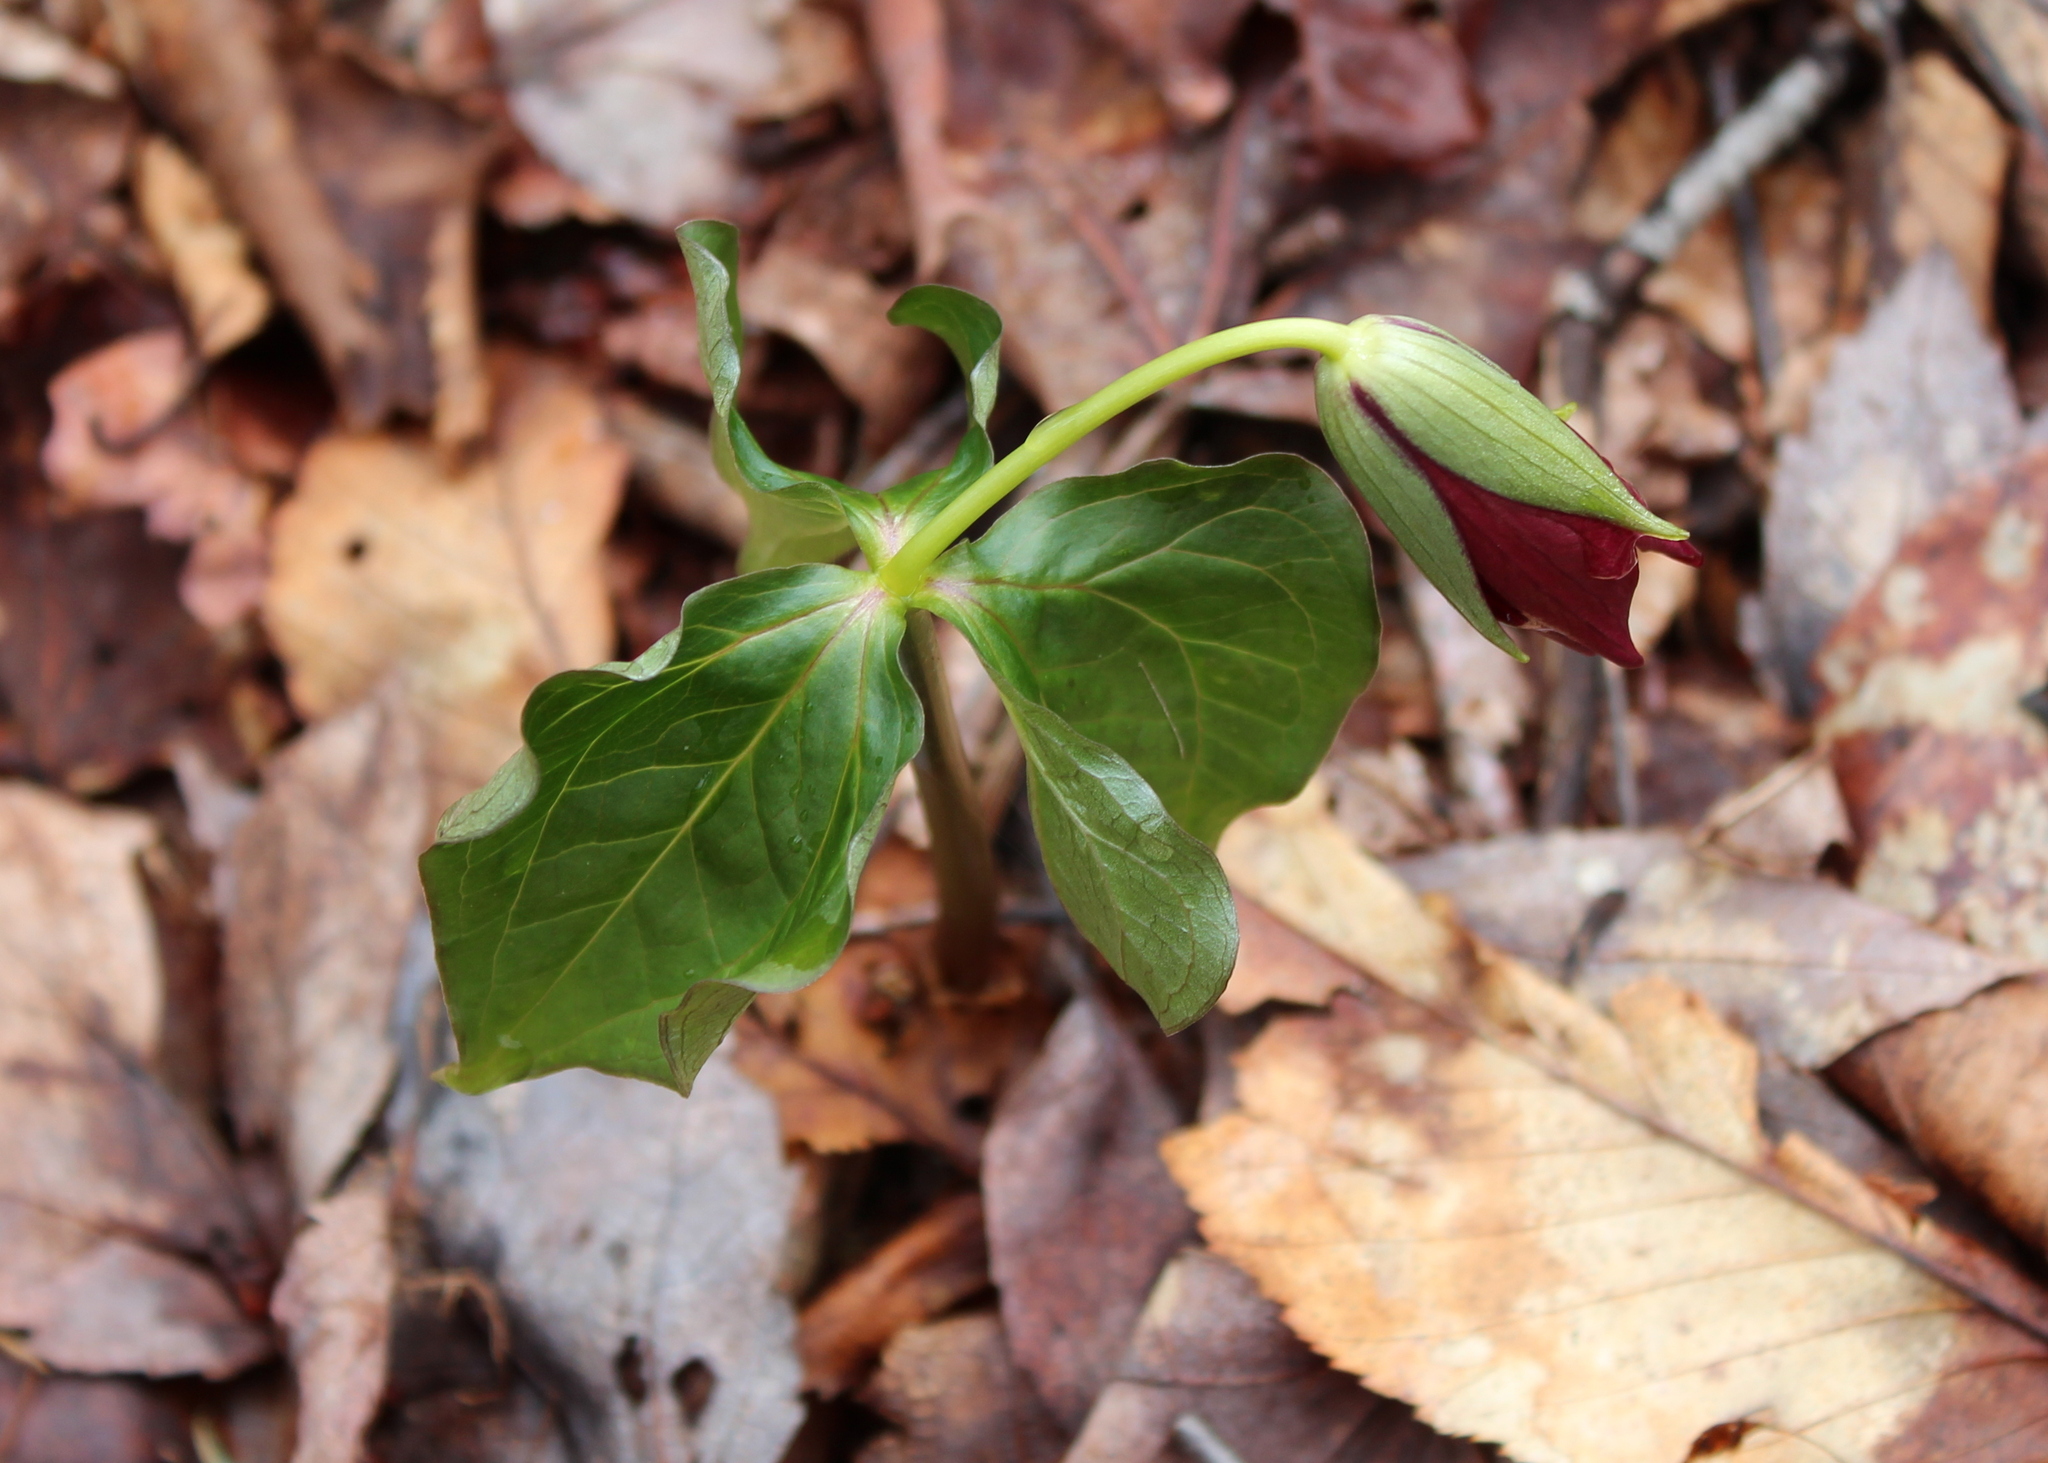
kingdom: Plantae
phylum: Tracheophyta
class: Liliopsida
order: Liliales
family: Melanthiaceae
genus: Trillium
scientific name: Trillium erectum
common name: Purple trillium
